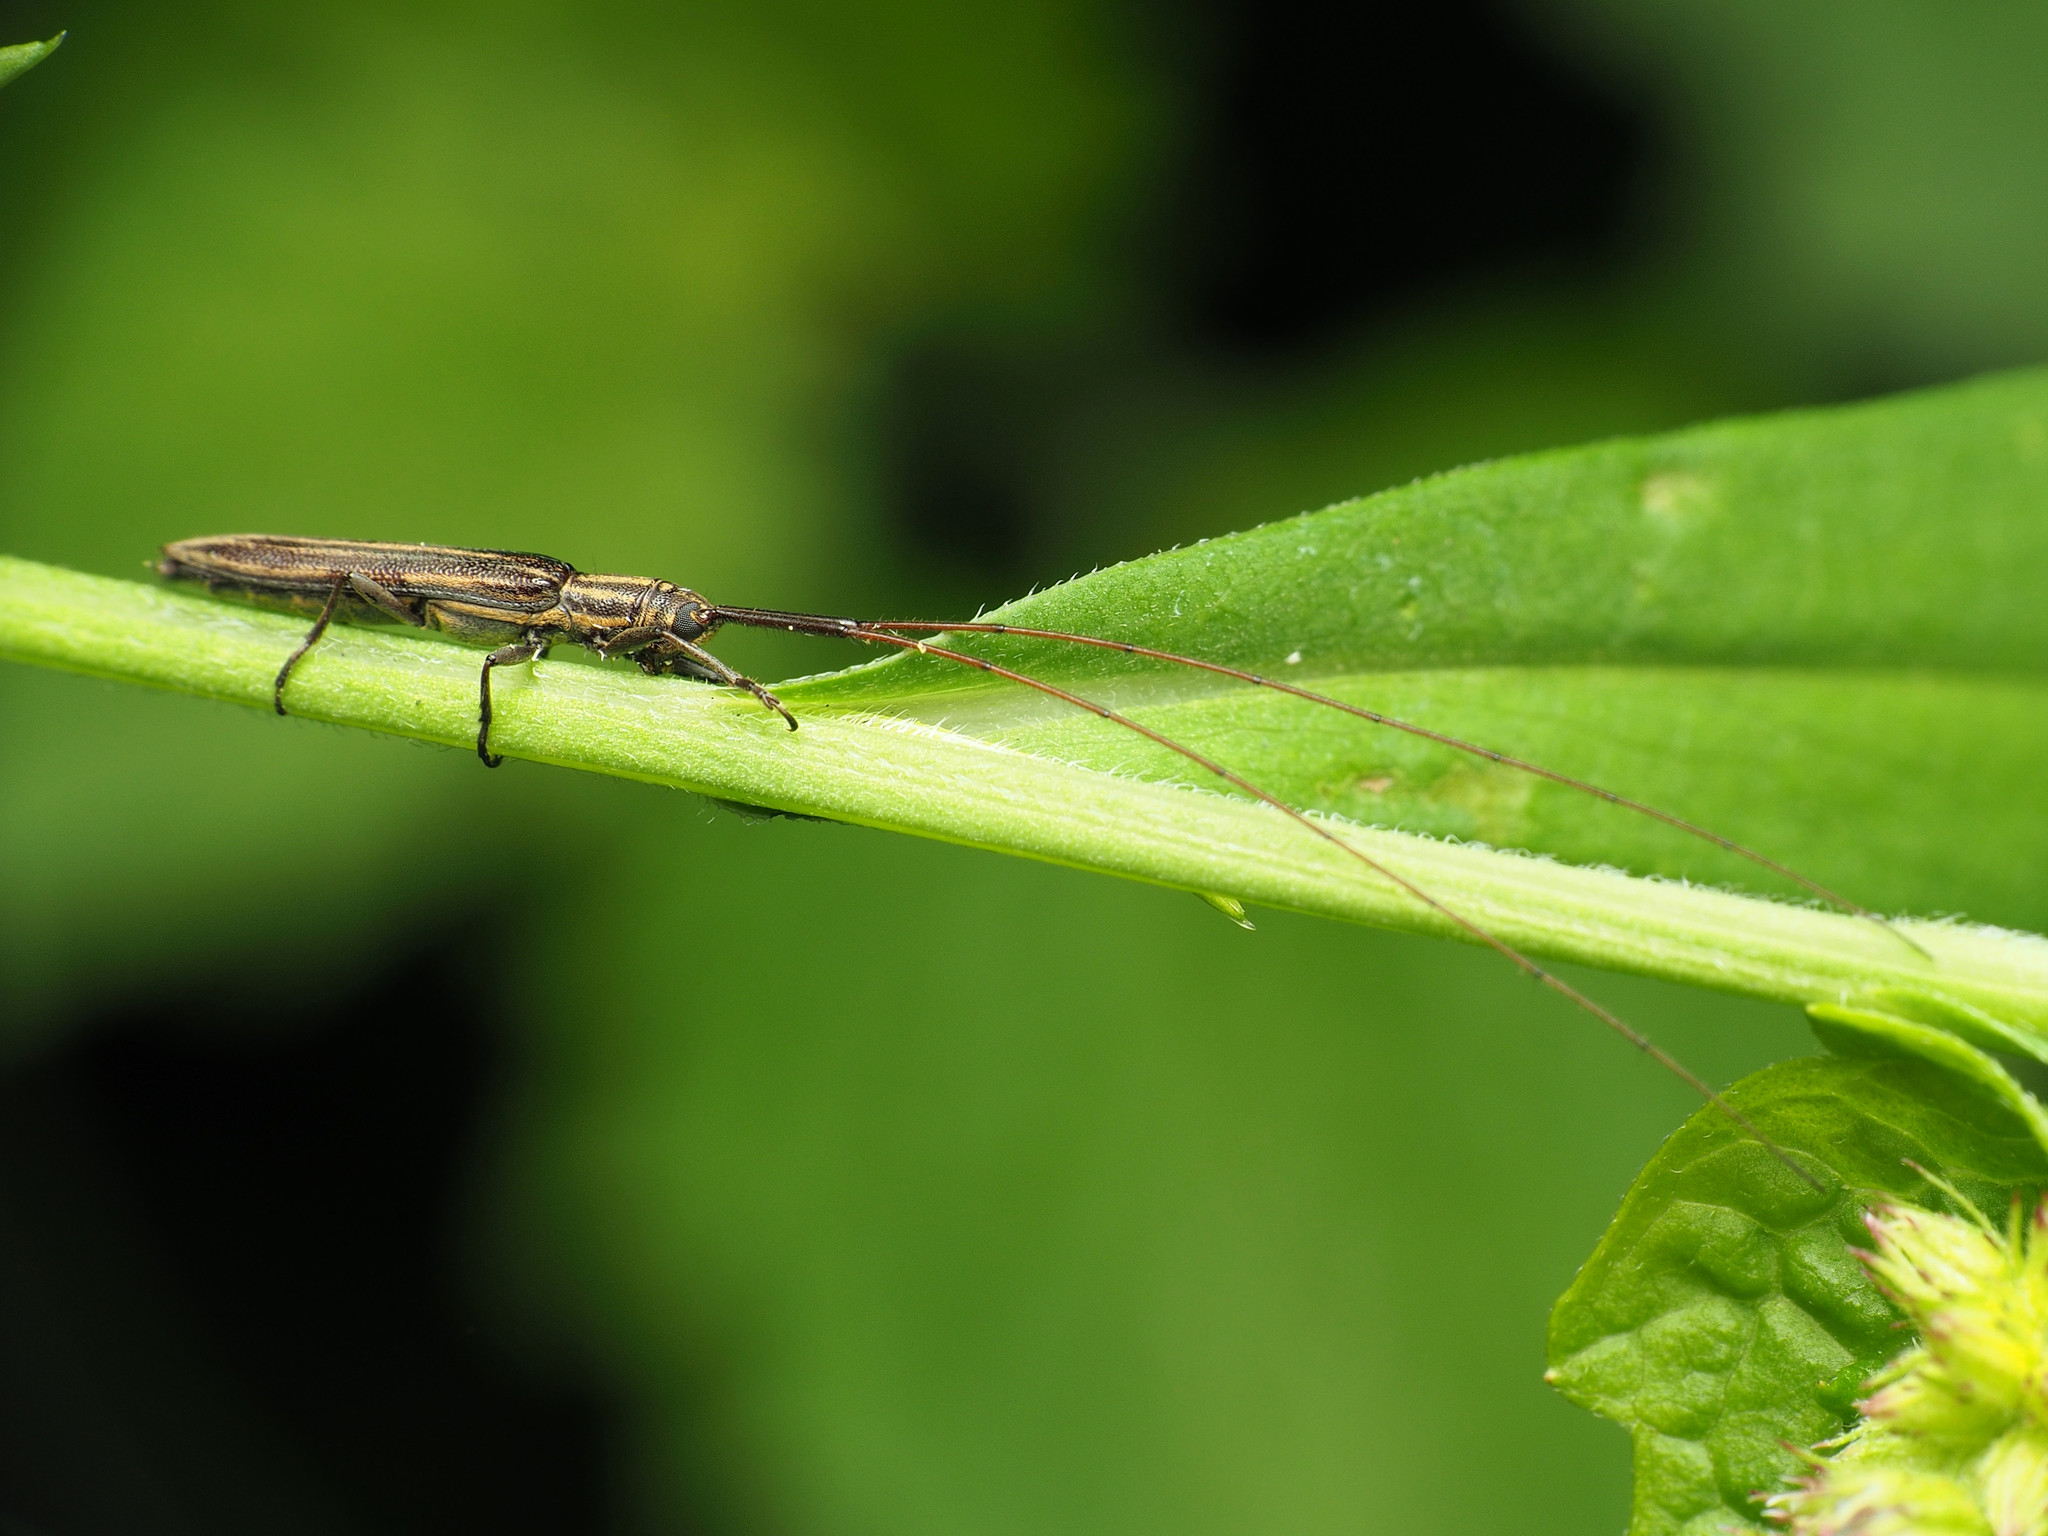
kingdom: Animalia
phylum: Arthropoda
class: Insecta
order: Coleoptera
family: Cerambycidae
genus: Hippopsis
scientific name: Hippopsis
